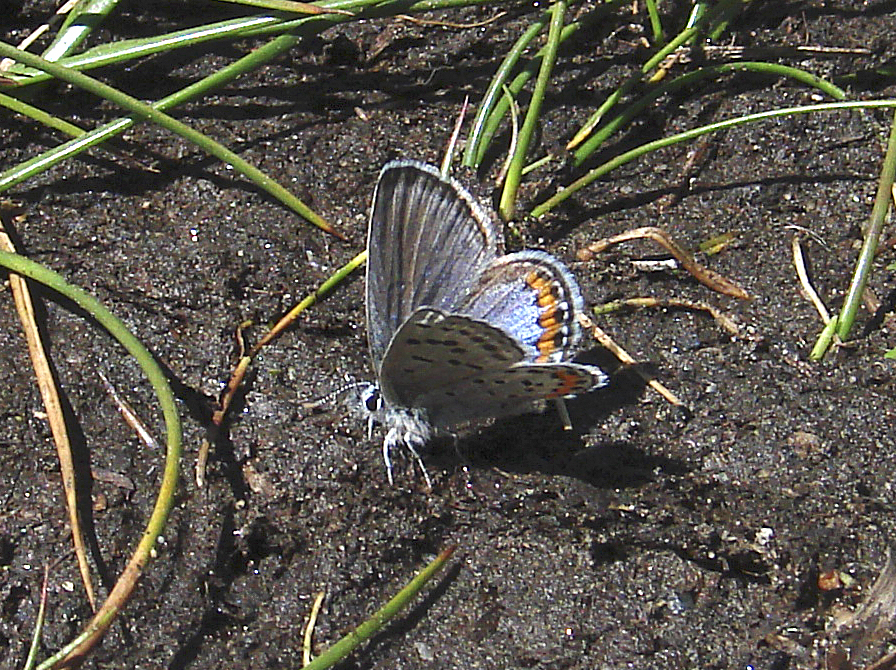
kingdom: Animalia
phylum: Arthropoda
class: Insecta
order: Lepidoptera
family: Lycaenidae
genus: Icaricia
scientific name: Icaricia lupini
